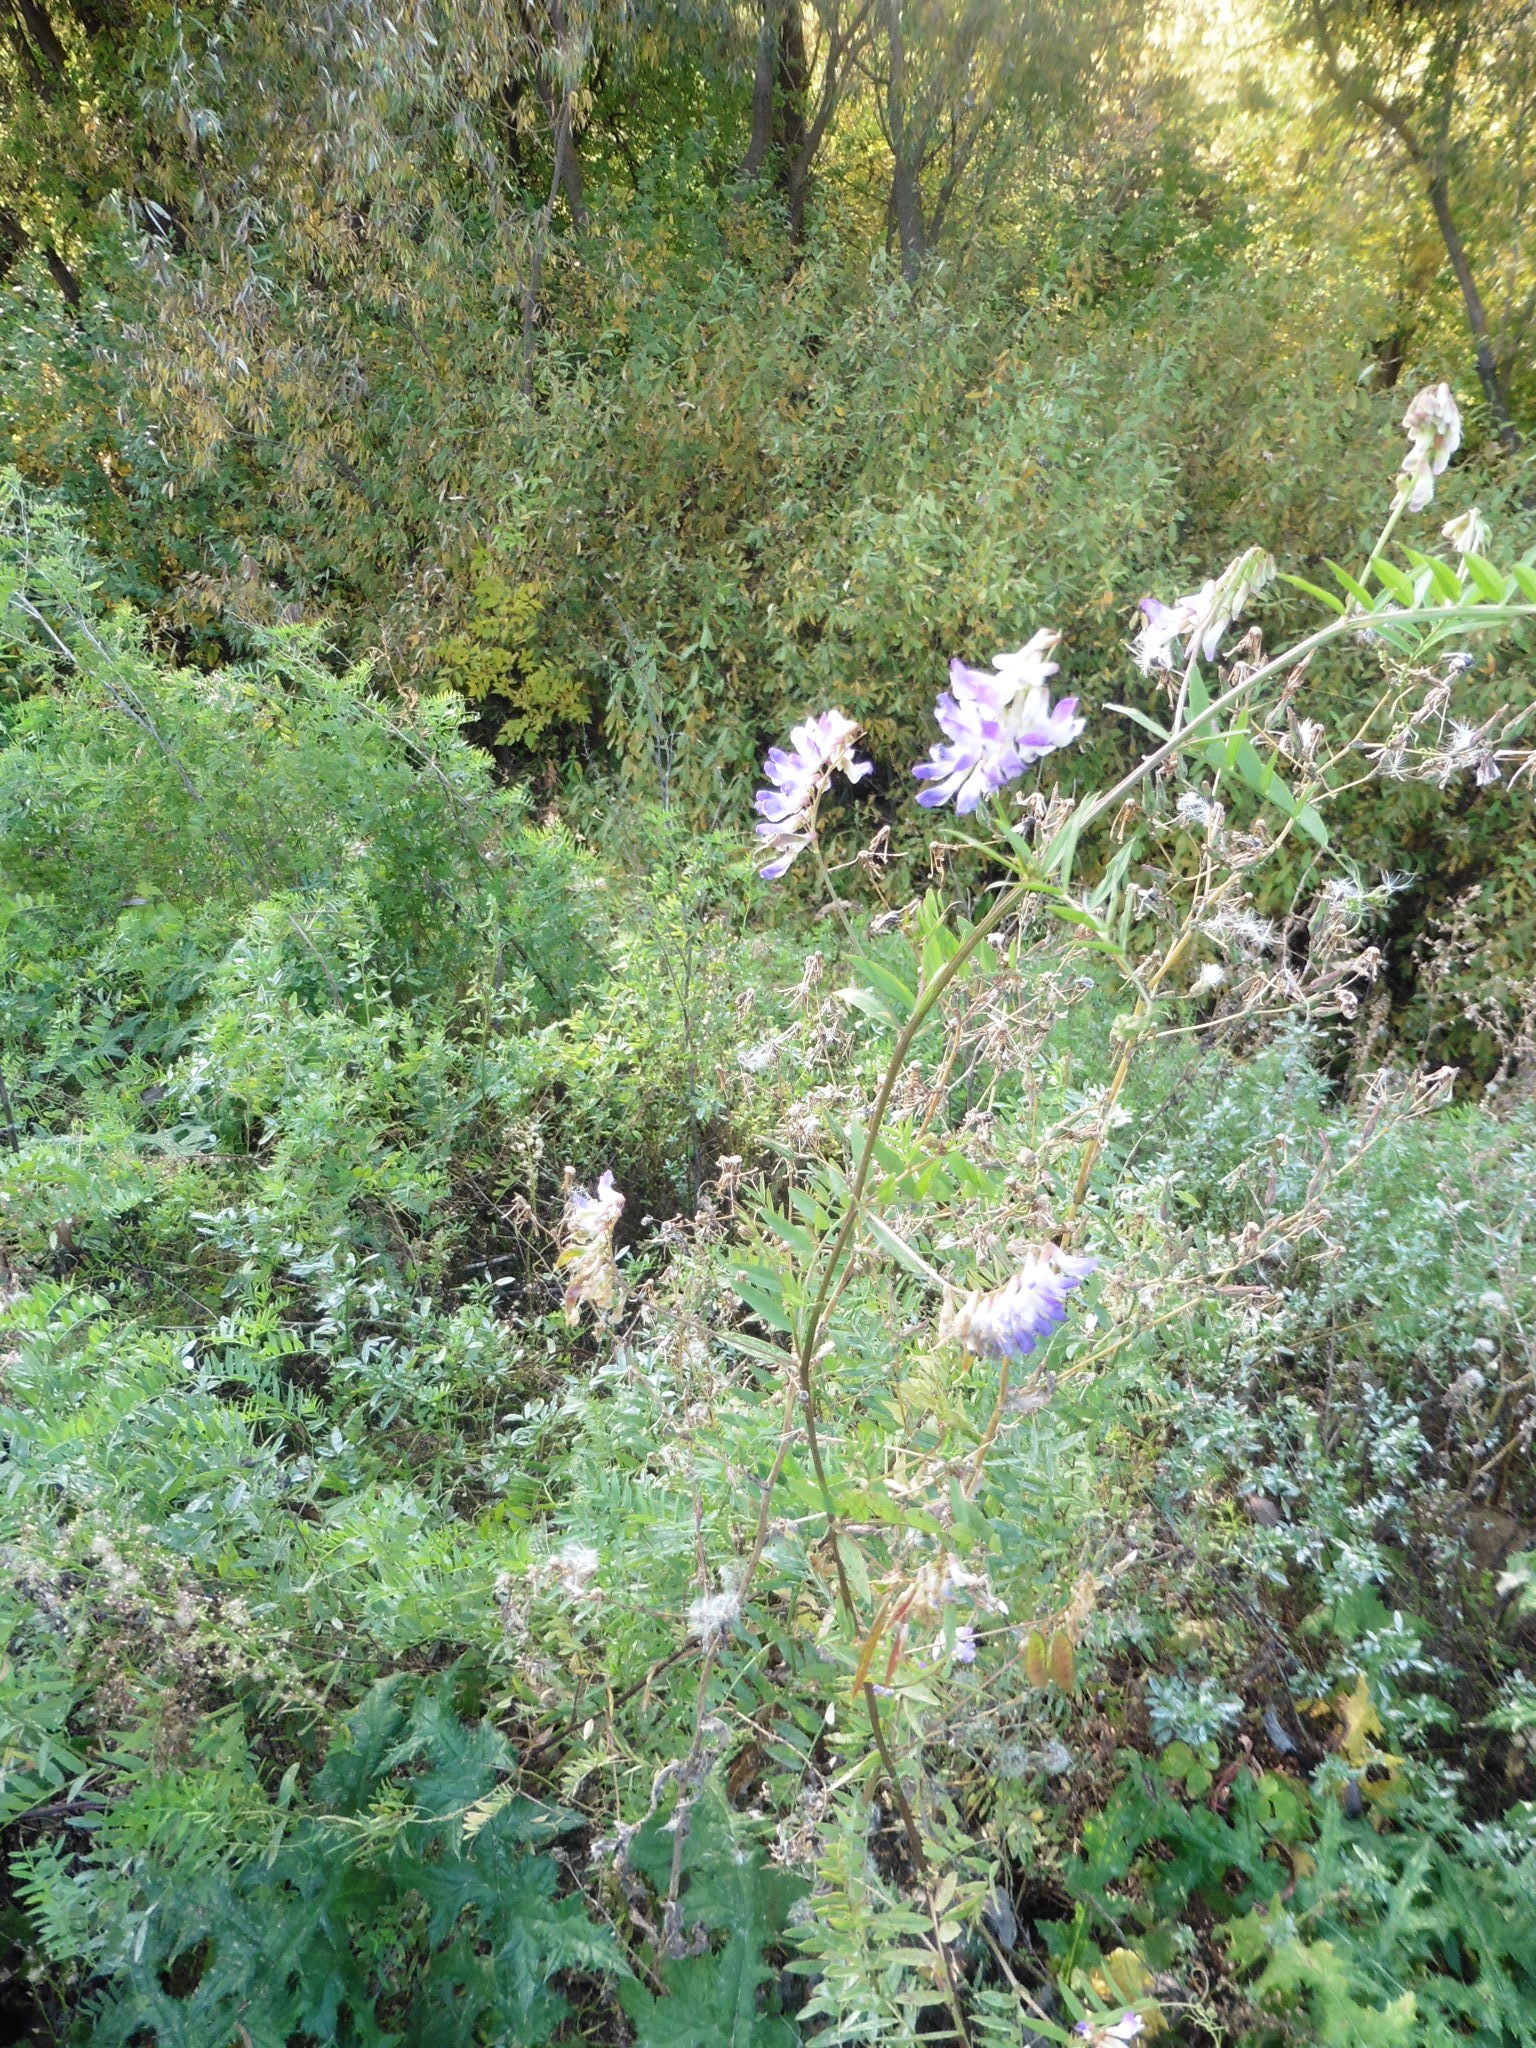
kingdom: Plantae
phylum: Tracheophyta
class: Magnoliopsida
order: Fabales
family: Fabaceae
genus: Vicia
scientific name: Vicia biennis
